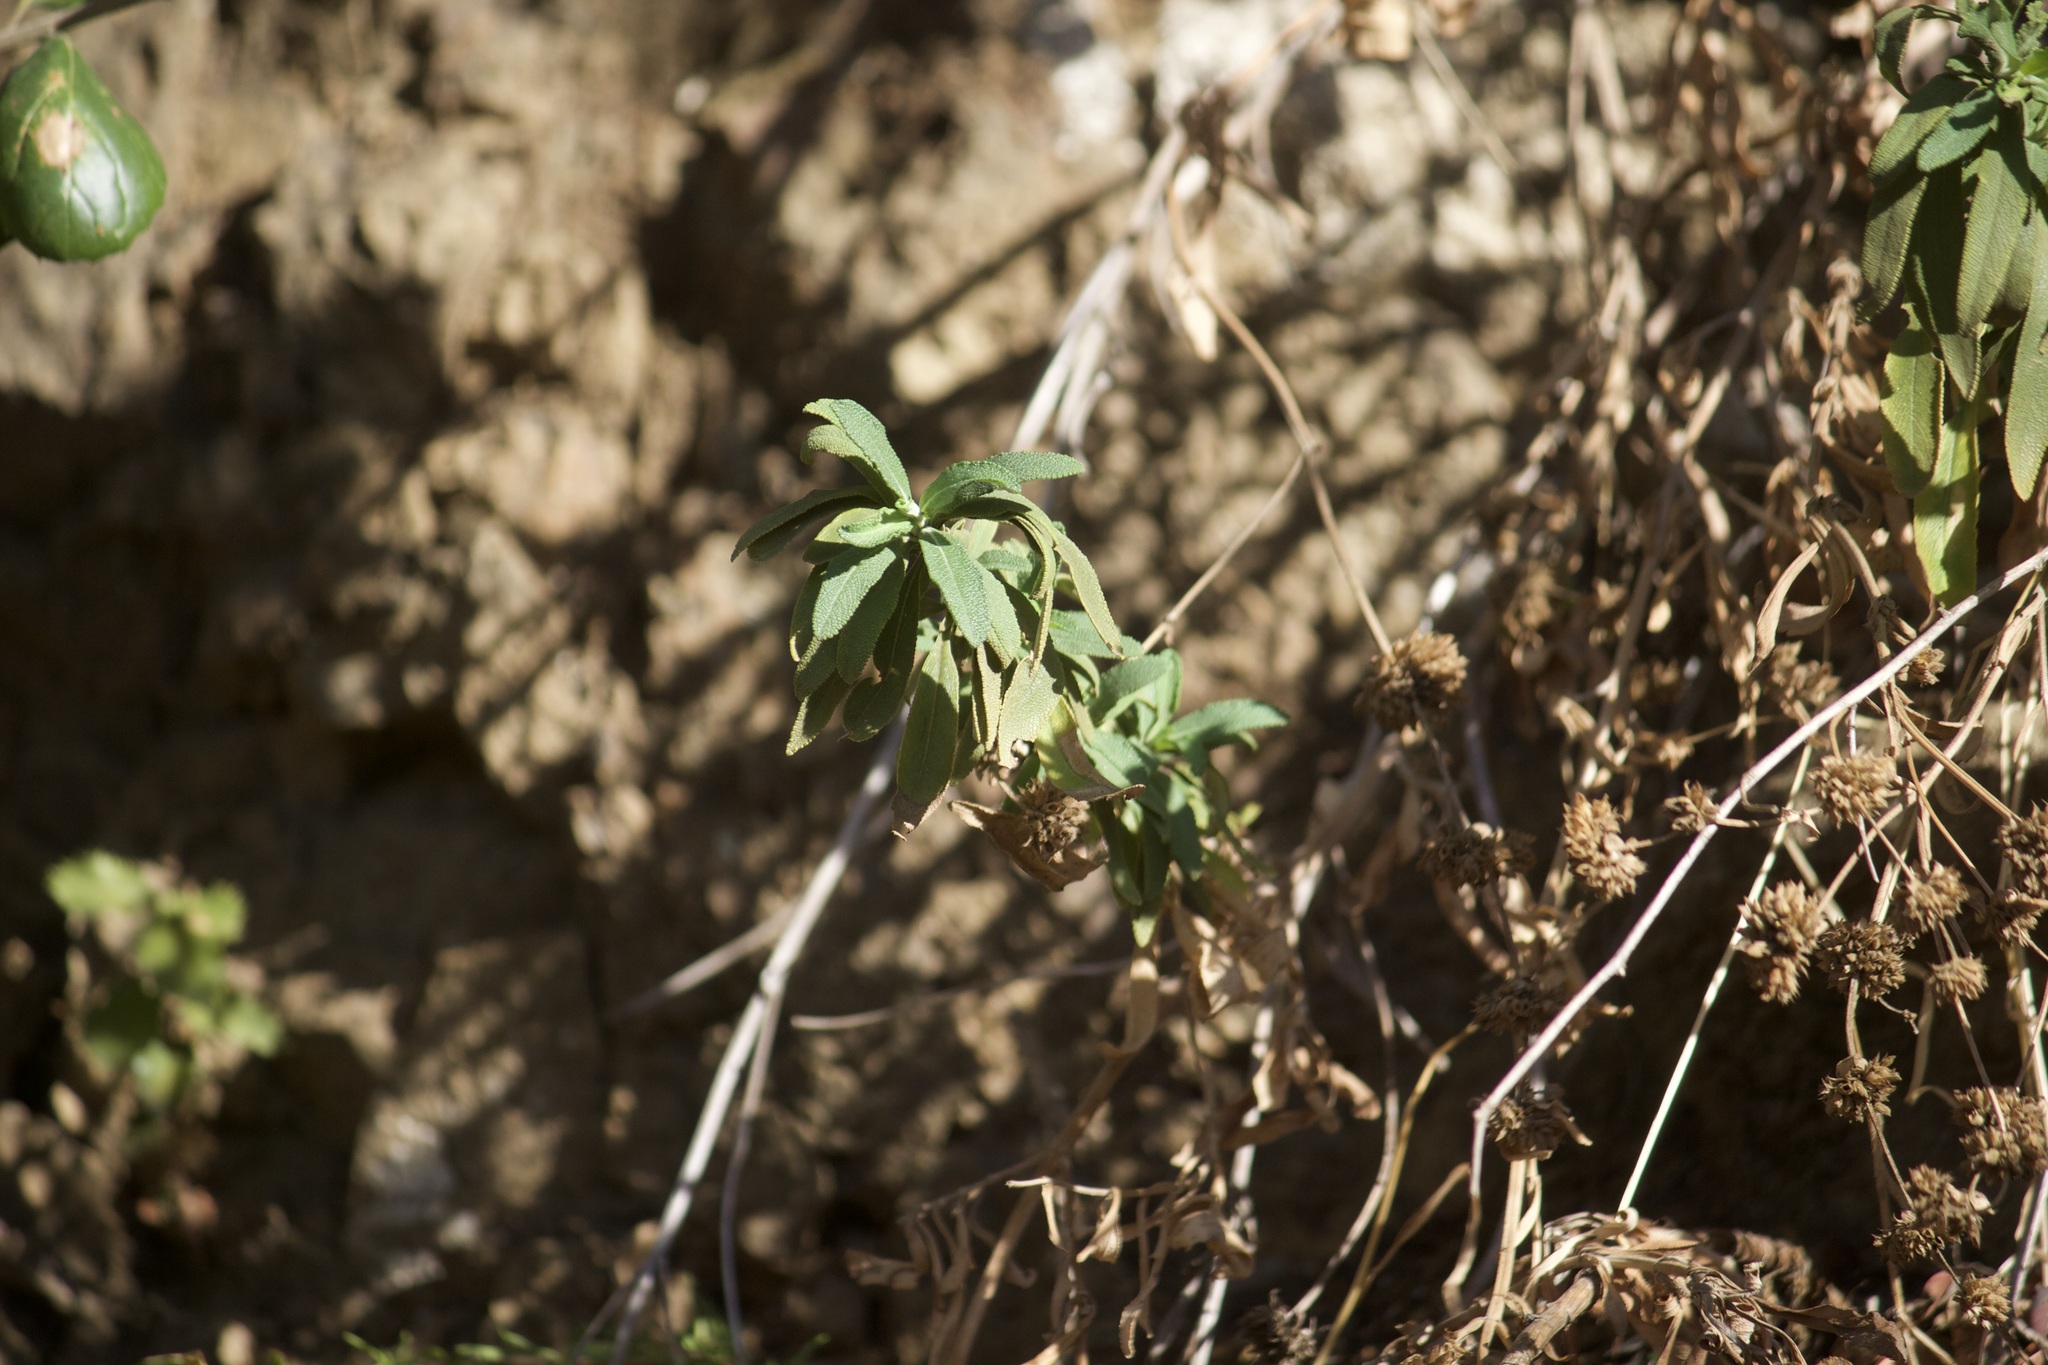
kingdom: Plantae
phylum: Tracheophyta
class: Magnoliopsida
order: Lamiales
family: Lamiaceae
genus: Salvia
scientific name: Salvia mellifera
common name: Black sage
